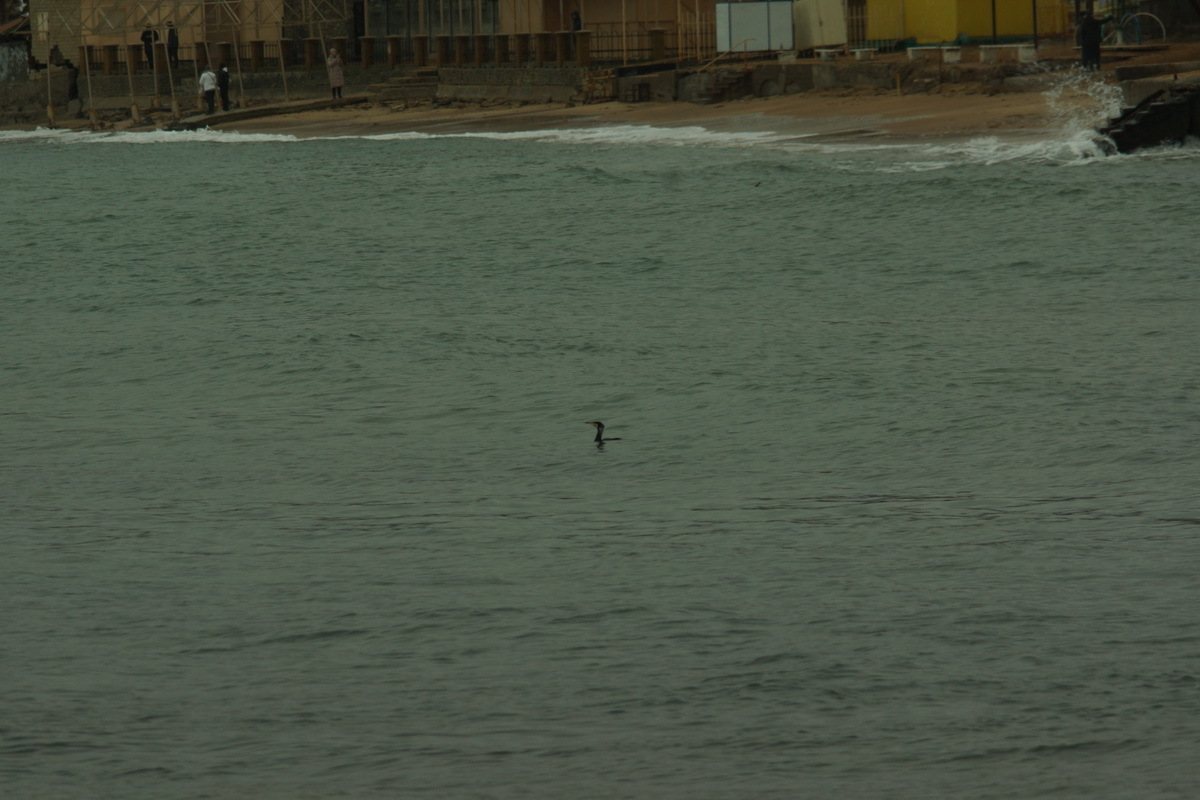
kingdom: Animalia
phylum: Chordata
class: Aves
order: Suliformes
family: Phalacrocoracidae
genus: Phalacrocorax
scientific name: Phalacrocorax carbo
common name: Great cormorant
